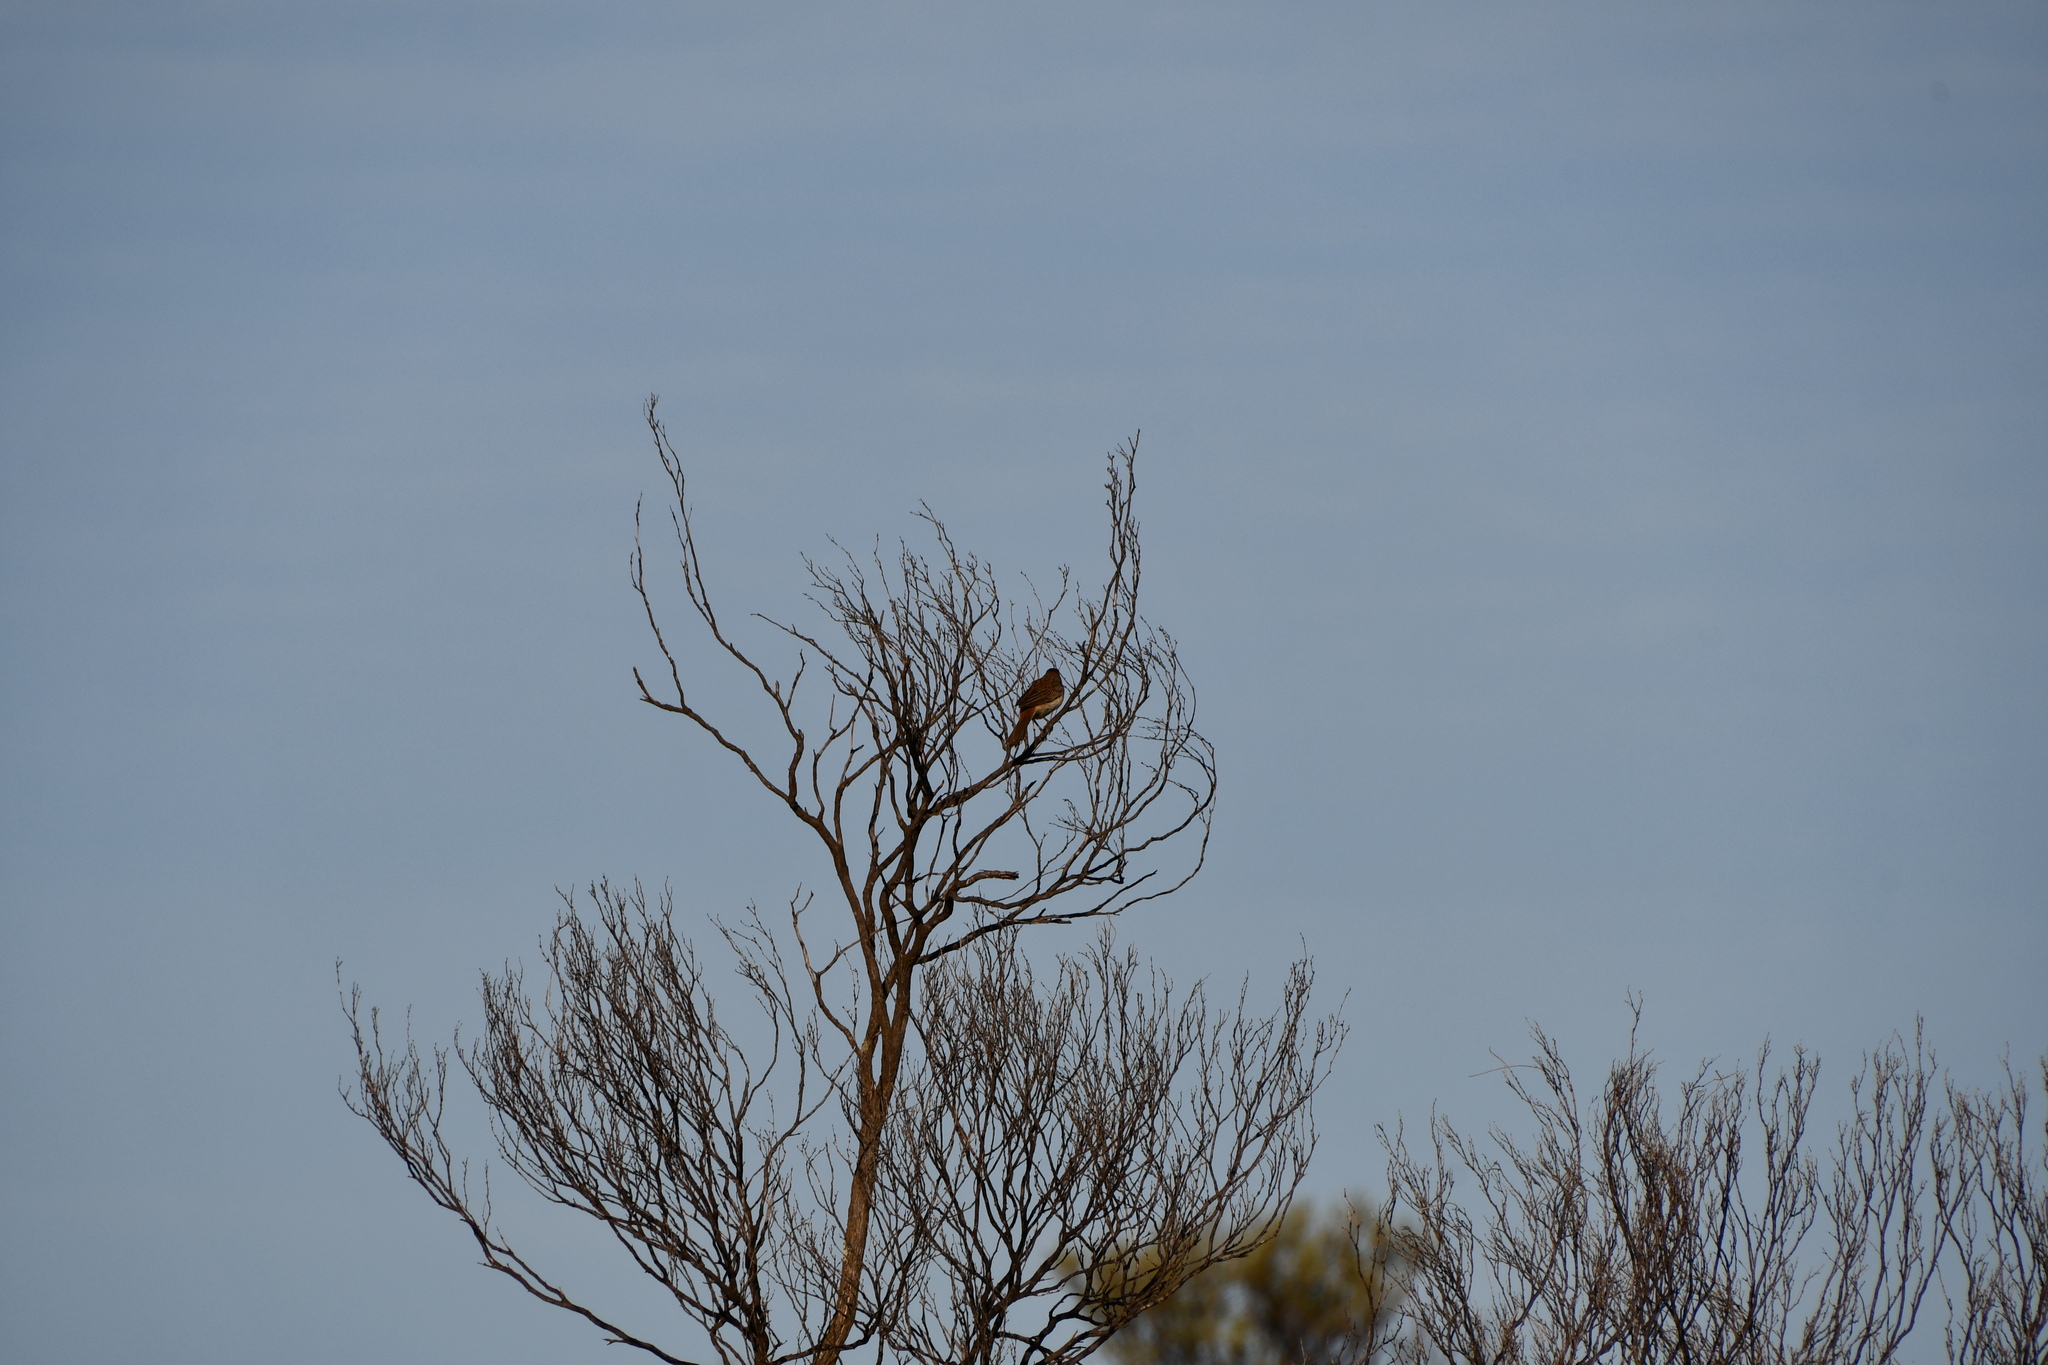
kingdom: Animalia
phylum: Chordata
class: Aves
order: Passeriformes
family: Locustellidae
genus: Megalurus
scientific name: Megalurus mathewsi
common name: Rufous songlark
